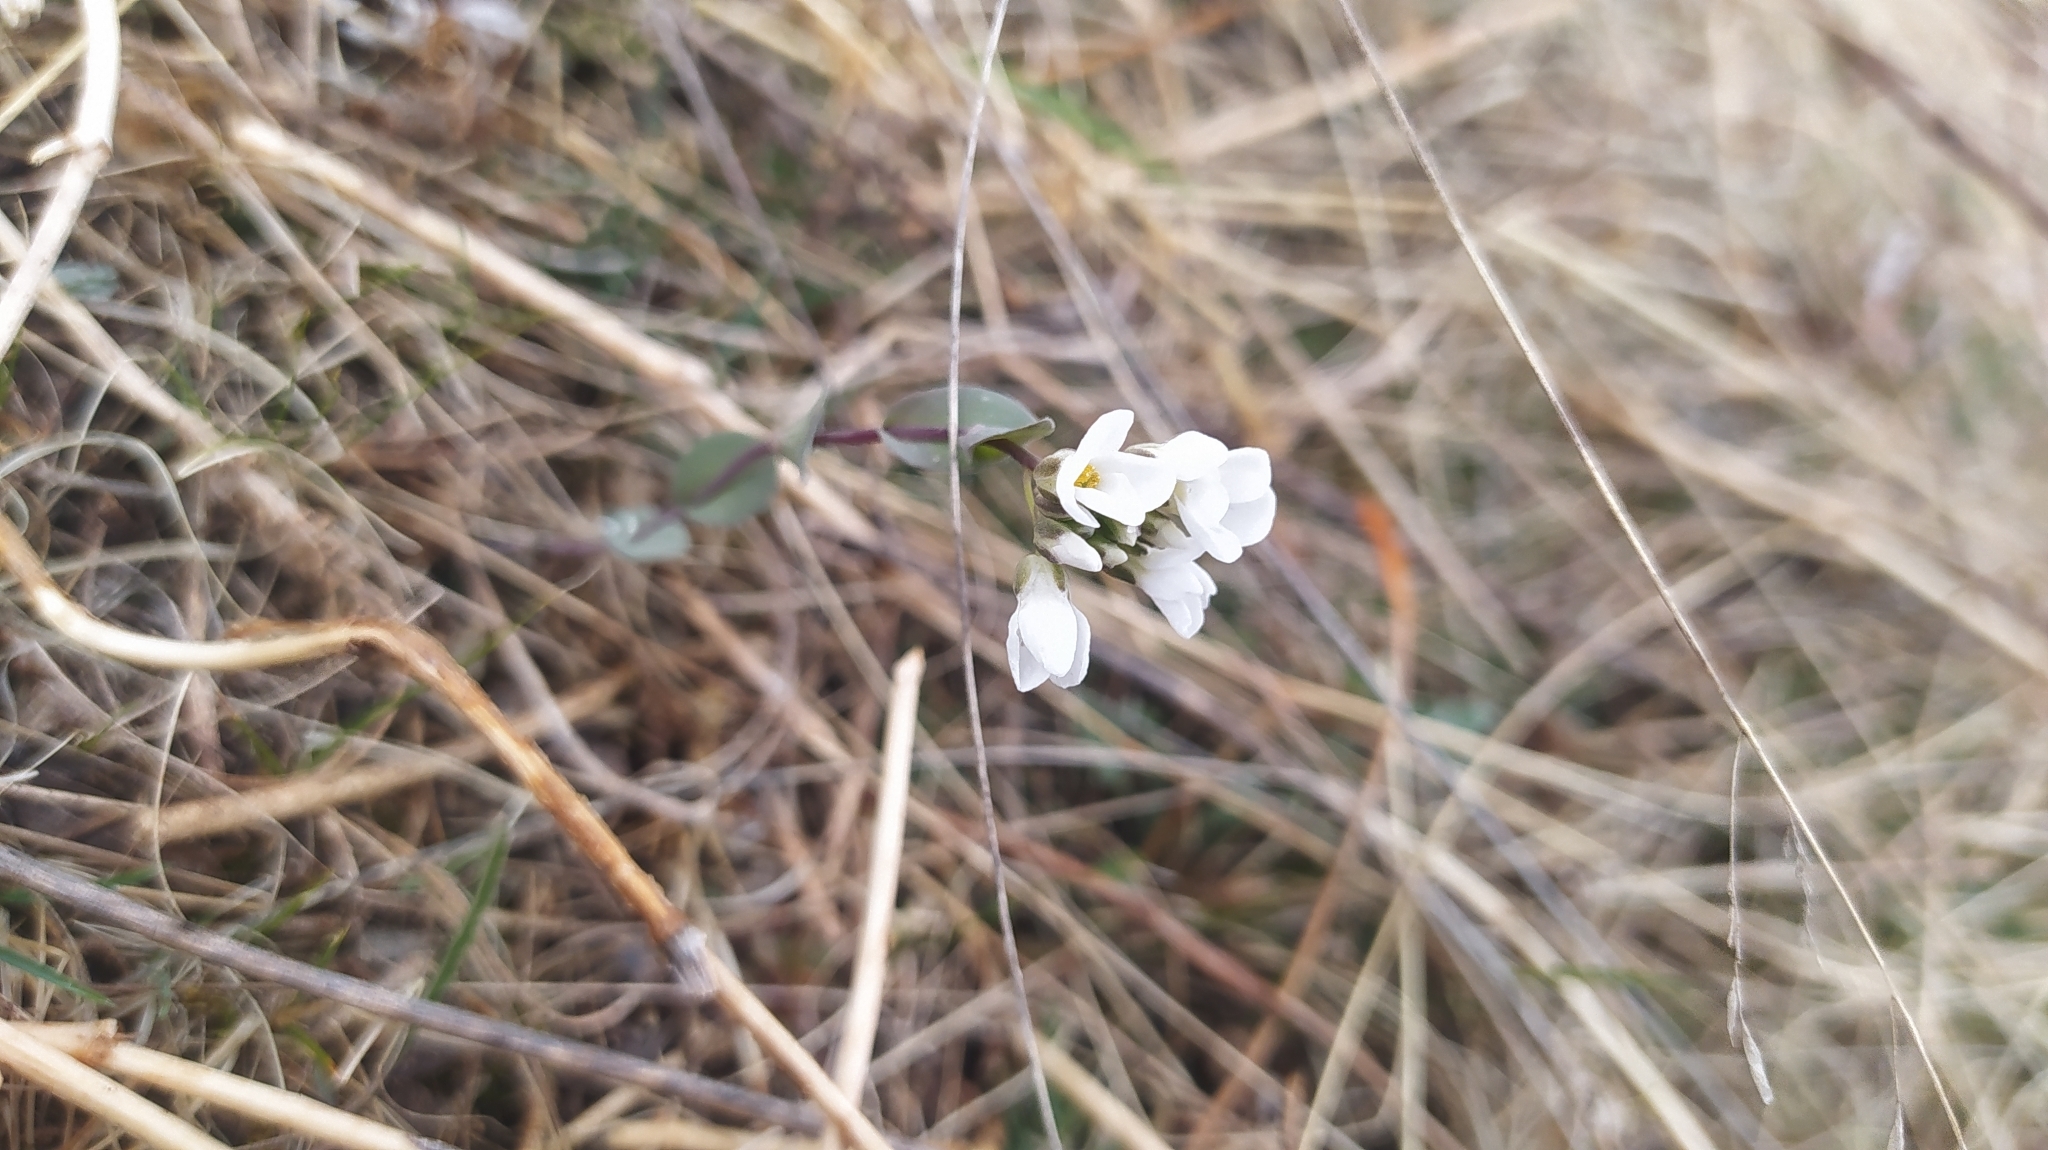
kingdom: Plantae
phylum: Tracheophyta
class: Magnoliopsida
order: Brassicales
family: Brassicaceae
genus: Noccaea
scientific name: Noccaea thlaspidioides
